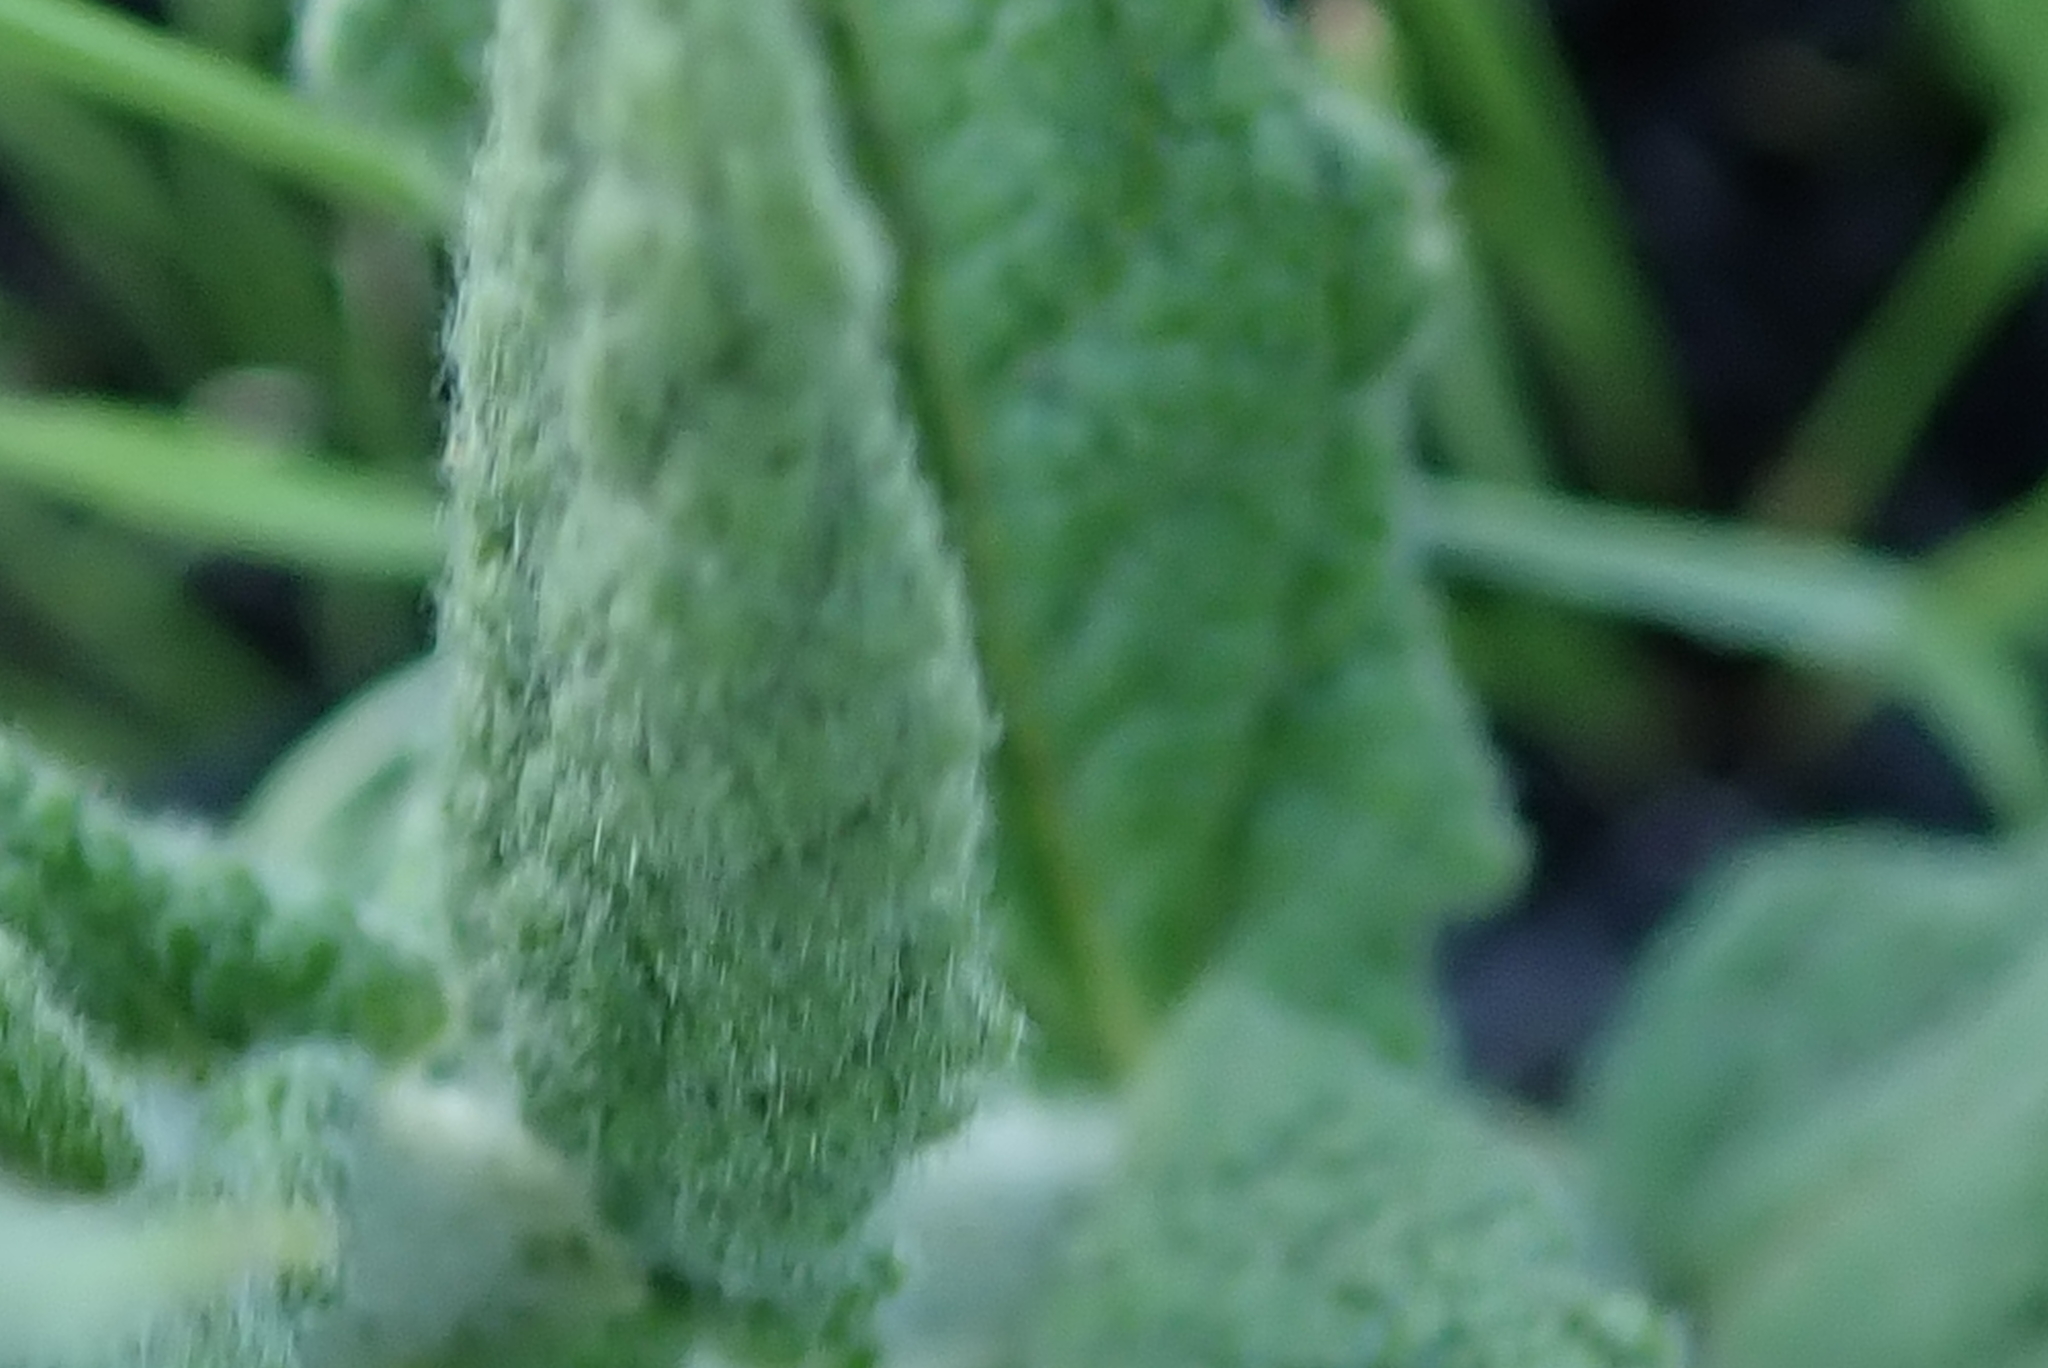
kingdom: Plantae
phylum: Tracheophyta
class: Magnoliopsida
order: Asterales
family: Asteraceae
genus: Hilliardiella
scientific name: Hilliardiella hirsuta
